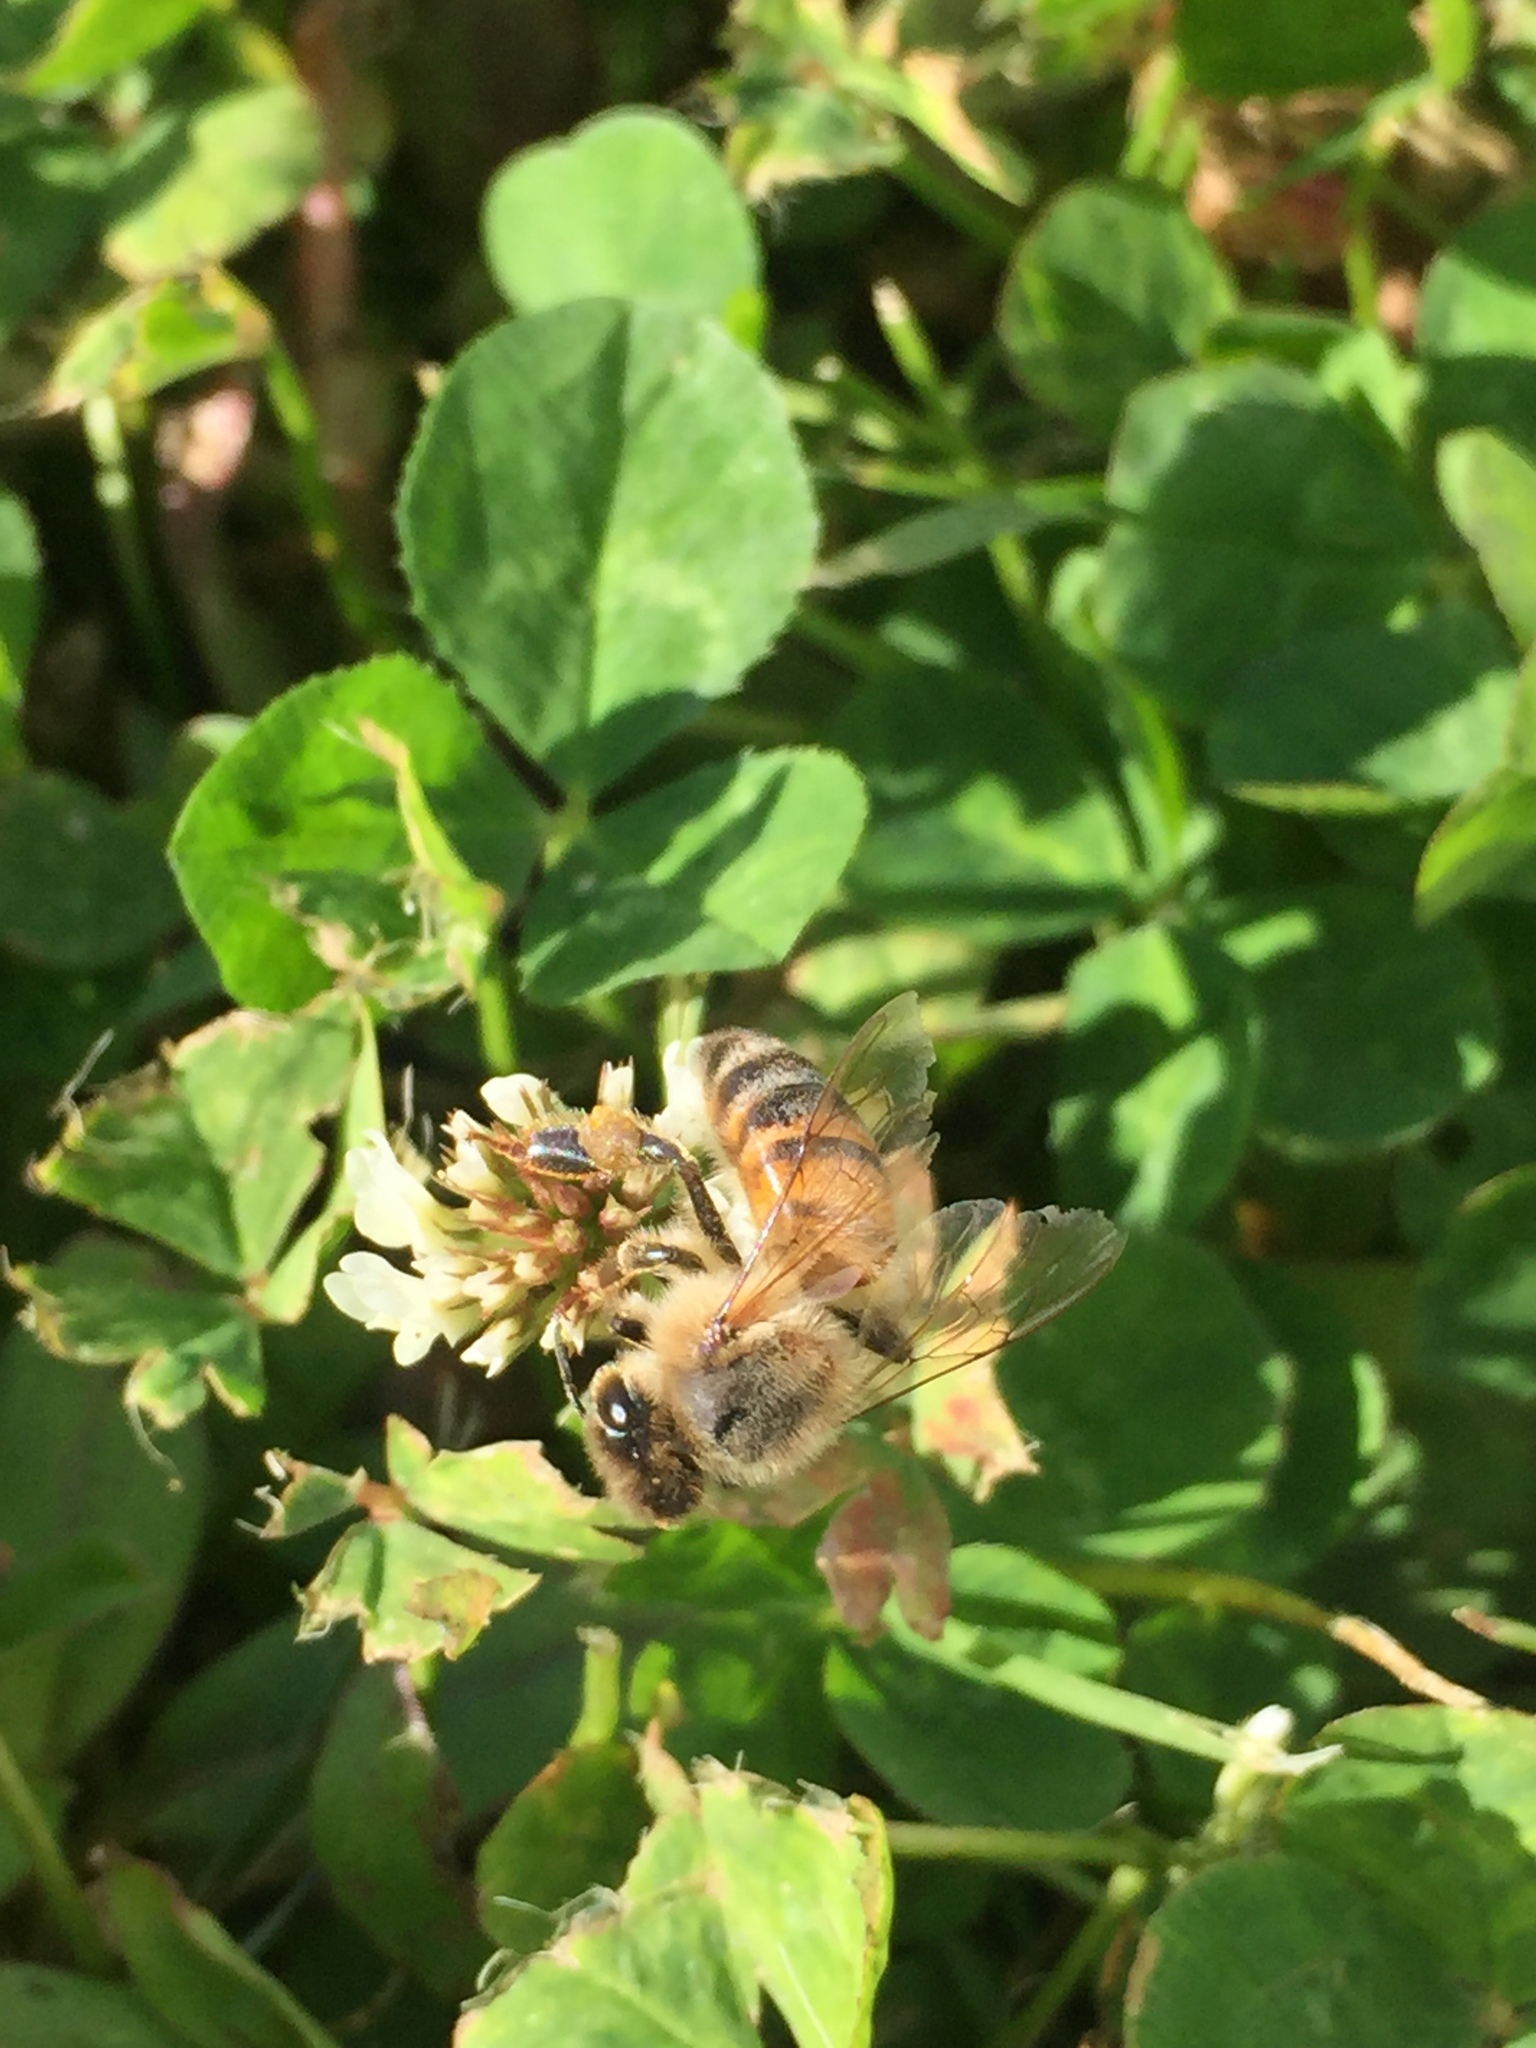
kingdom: Animalia
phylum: Arthropoda
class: Insecta
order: Hymenoptera
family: Apidae
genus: Apis
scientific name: Apis mellifera
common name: Honey bee
